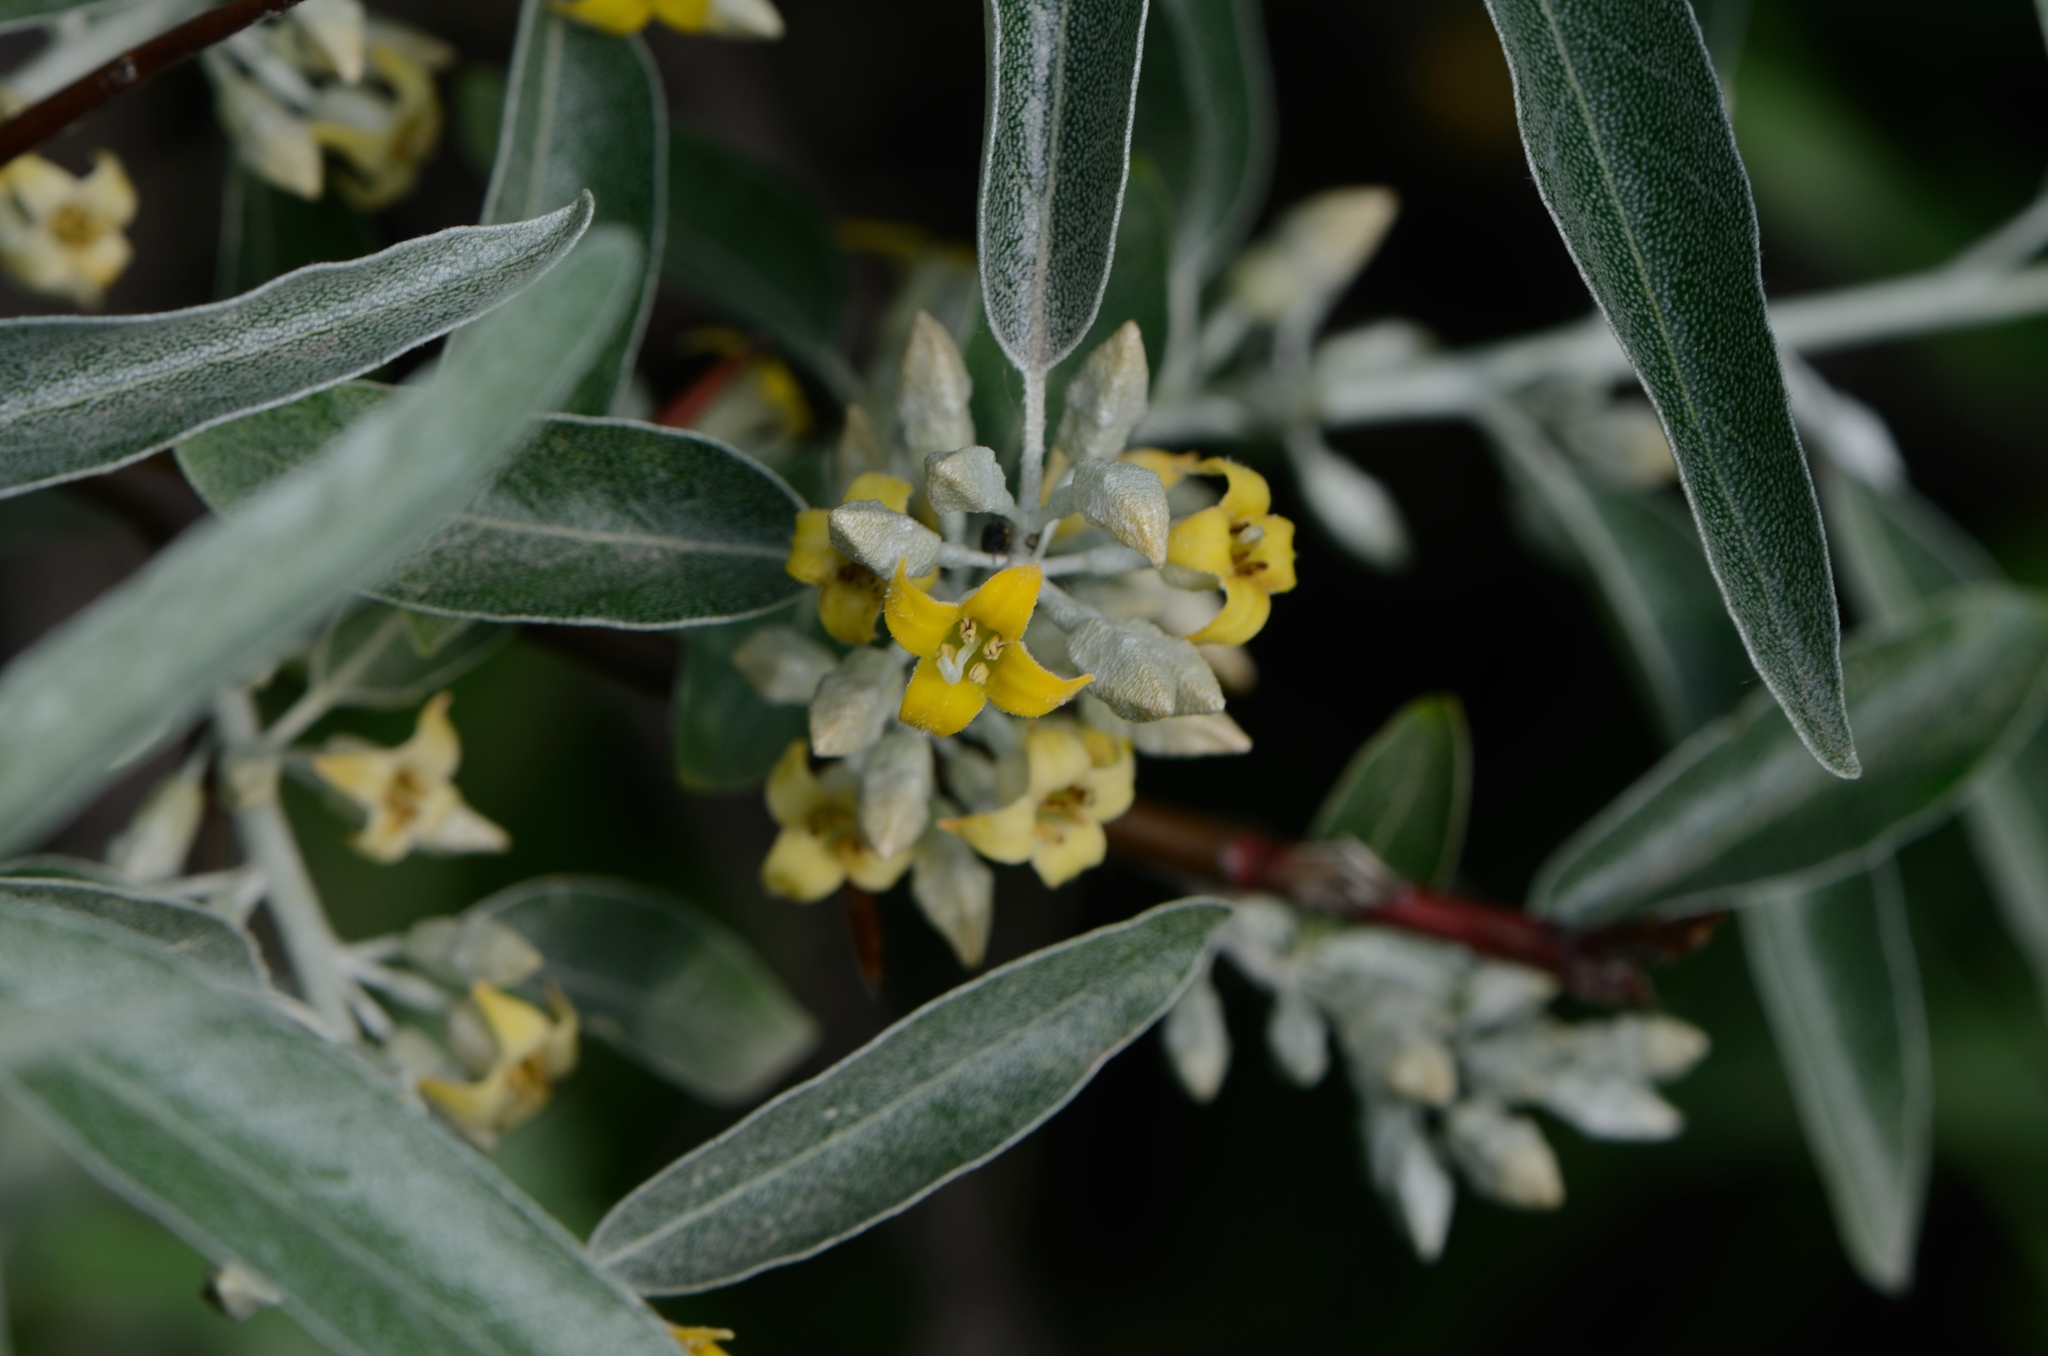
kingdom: Plantae
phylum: Tracheophyta
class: Magnoliopsida
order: Rosales
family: Elaeagnaceae
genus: Elaeagnus
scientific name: Elaeagnus angustifolia
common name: Russian olive
